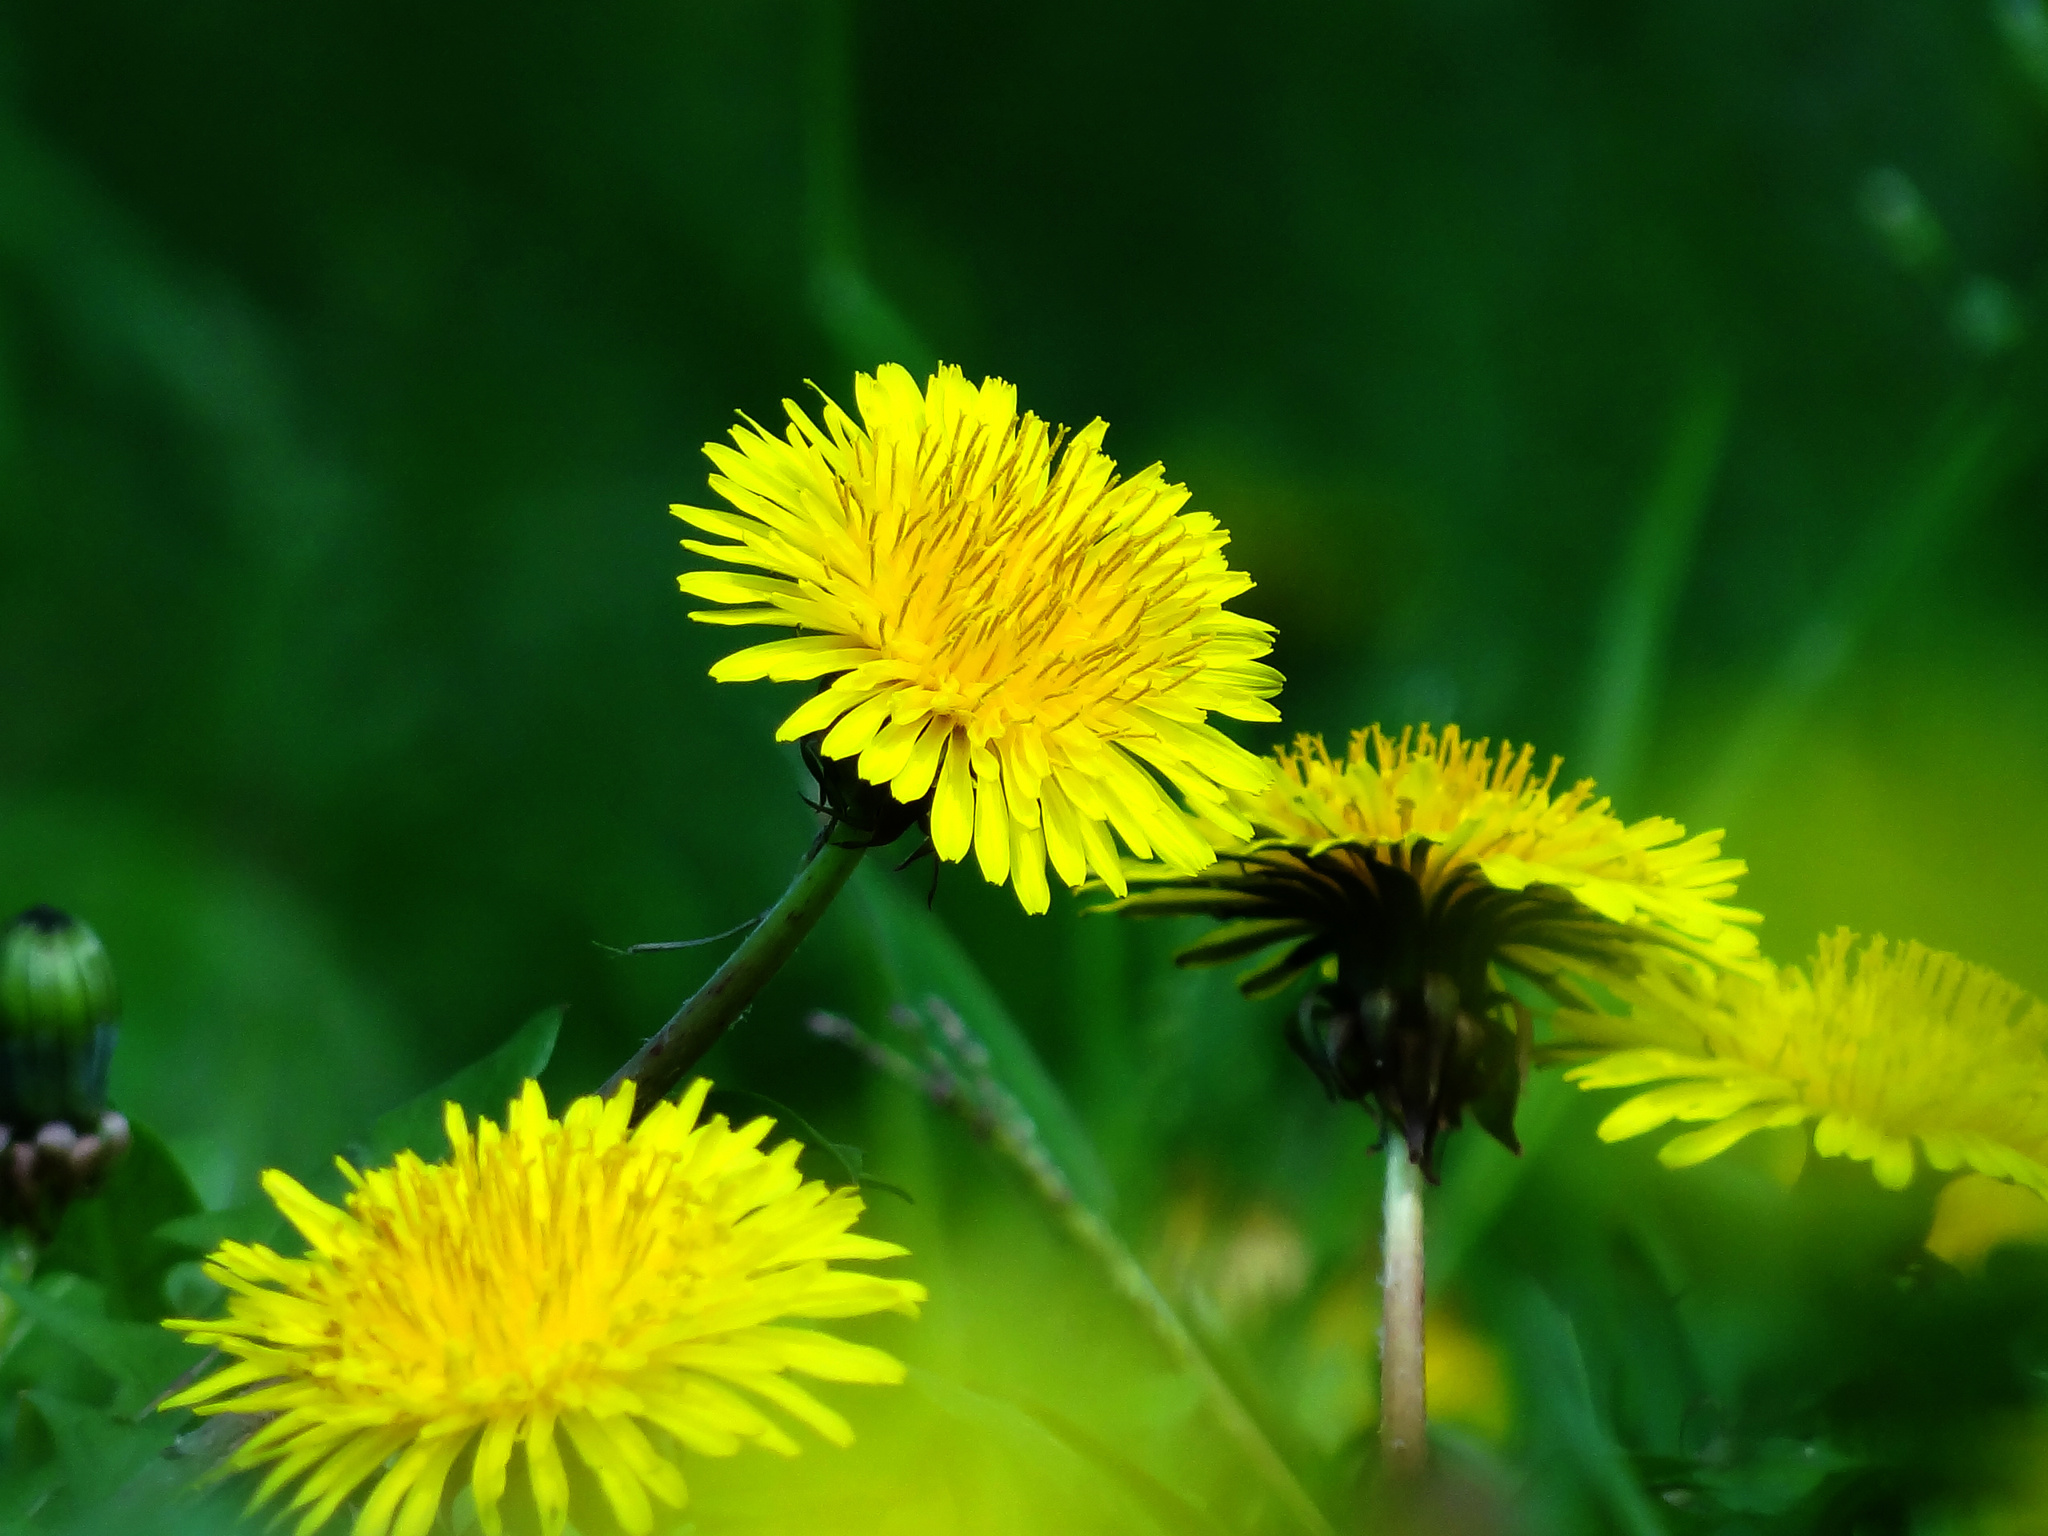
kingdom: Plantae
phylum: Tracheophyta
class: Magnoliopsida
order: Asterales
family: Asteraceae
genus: Taraxacum
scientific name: Taraxacum officinale
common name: Common dandelion
